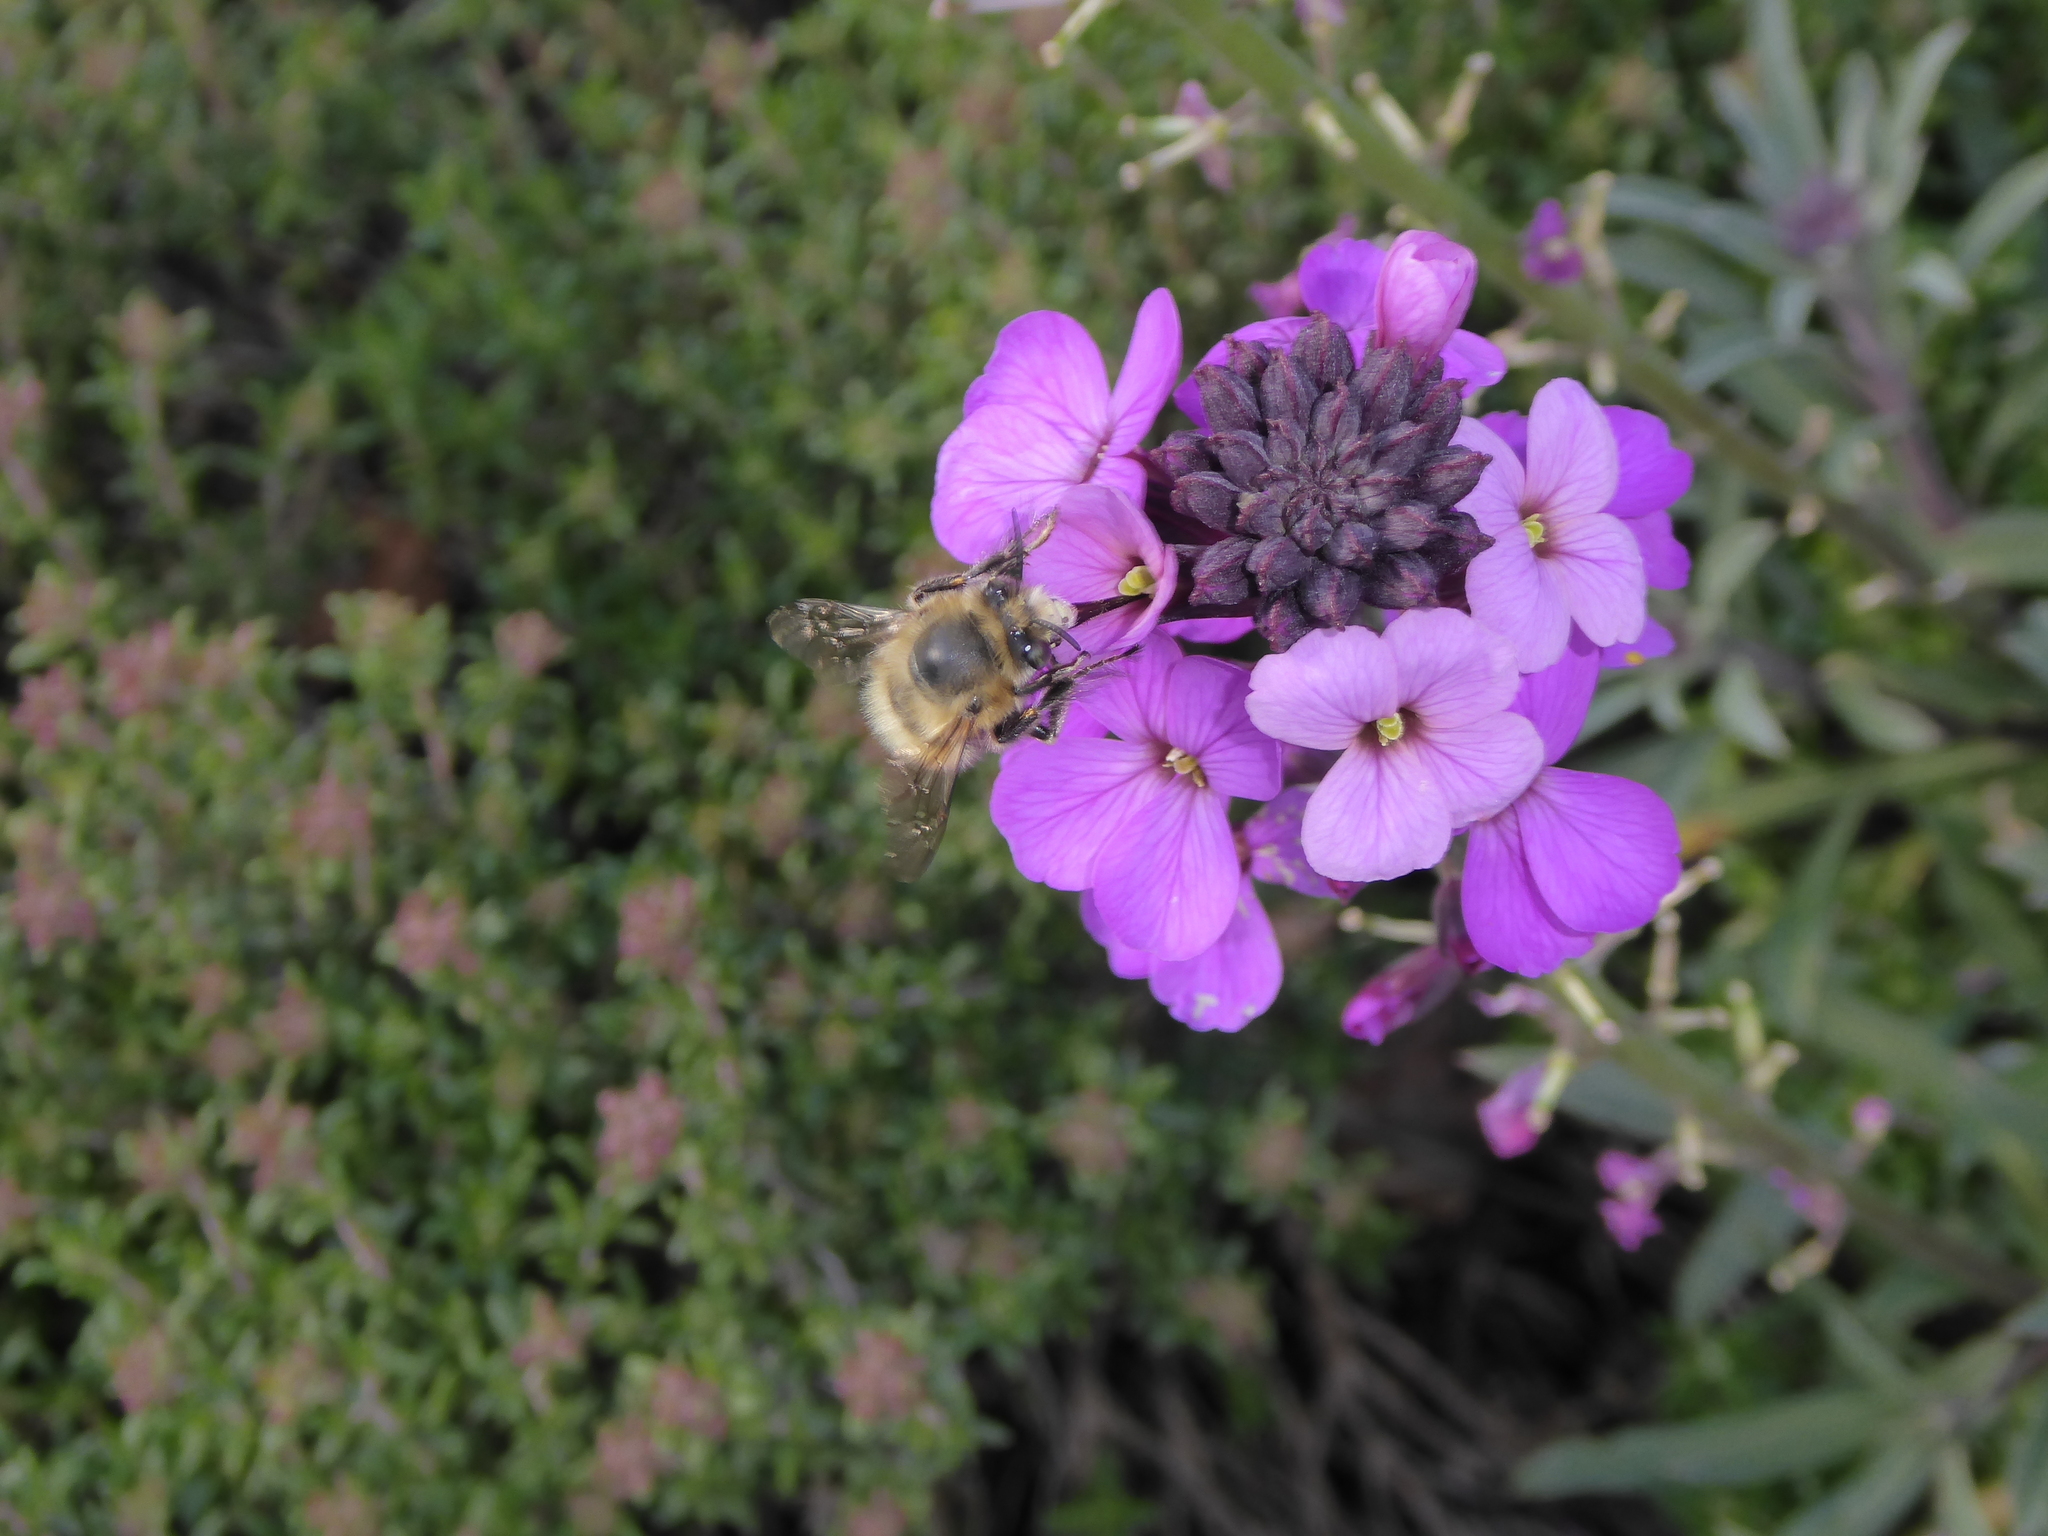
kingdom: Animalia
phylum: Arthropoda
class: Insecta
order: Hymenoptera
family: Apidae
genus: Anthophora
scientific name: Anthophora plumipes
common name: Hairy-footed flower bee
